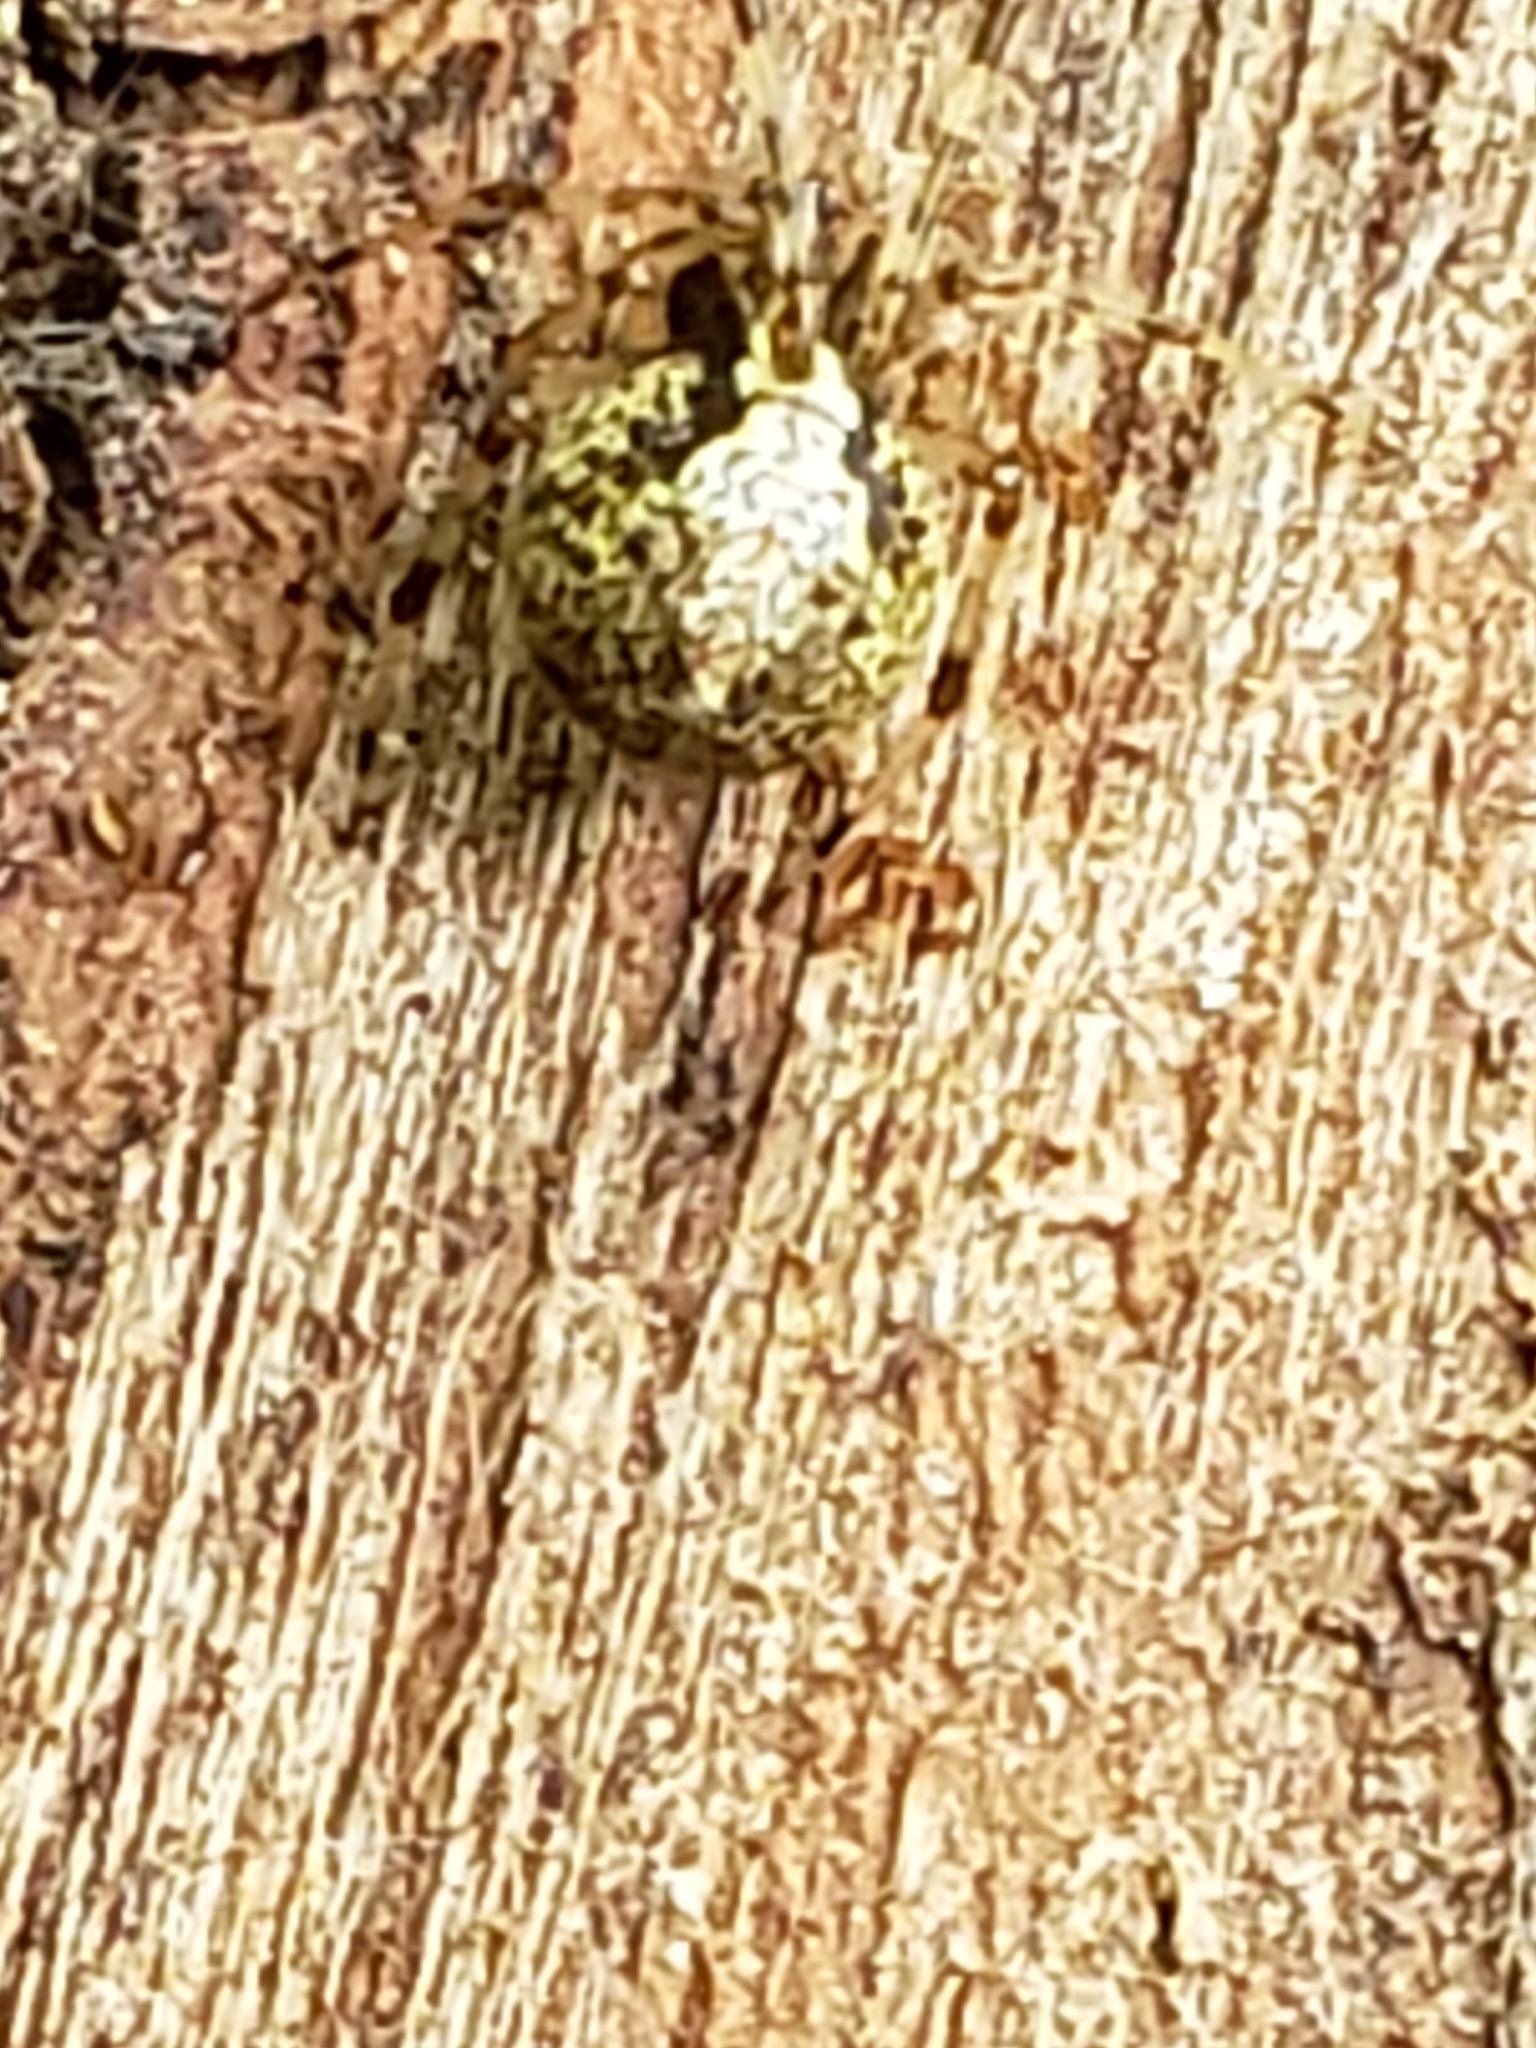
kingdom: Animalia
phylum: Arthropoda
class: Arachnida
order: Araneae
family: Theridiidae
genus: Yunohamella
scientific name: Yunohamella lyrica
